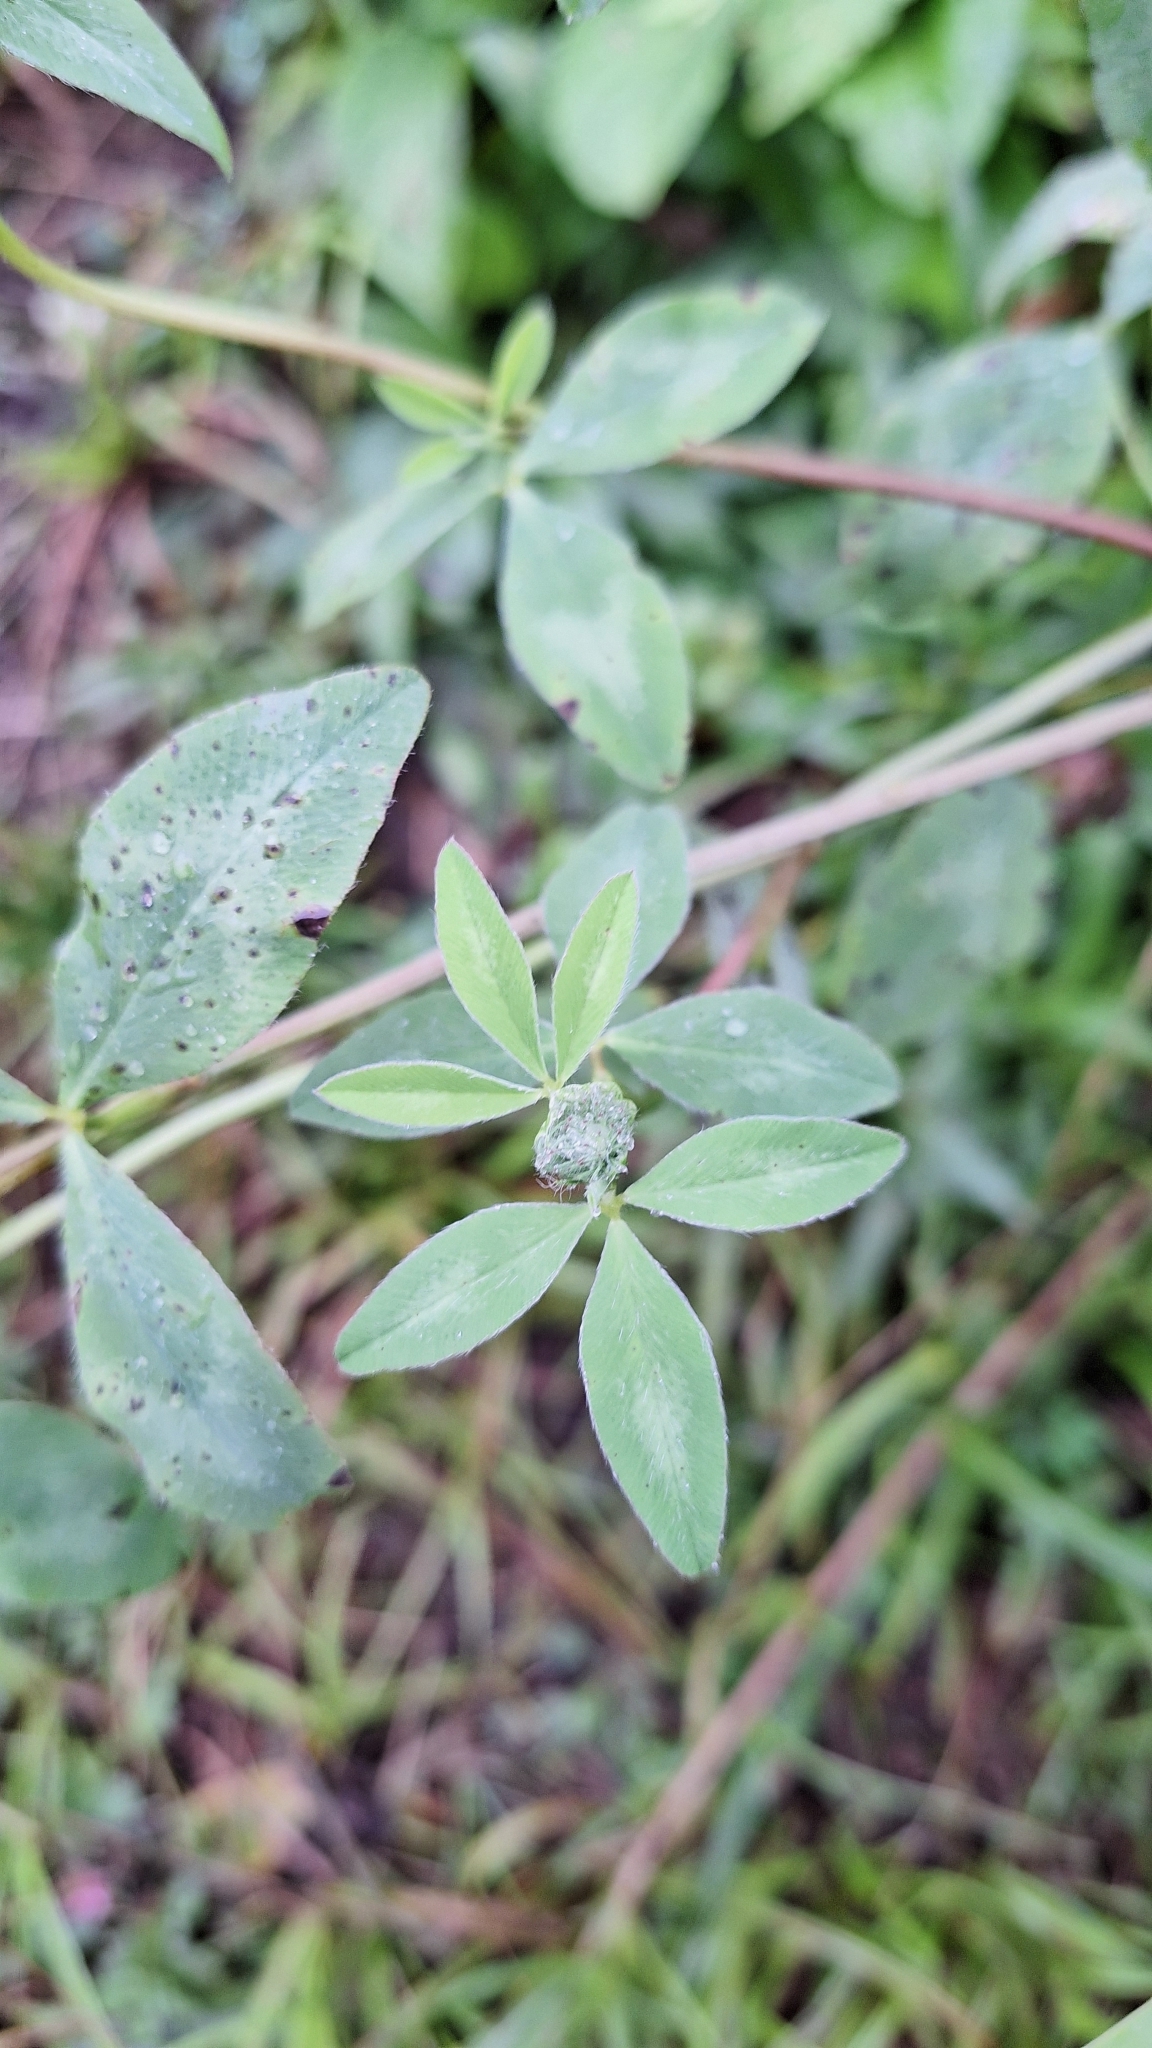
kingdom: Plantae
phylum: Tracheophyta
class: Magnoliopsida
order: Fabales
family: Fabaceae
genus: Trifolium
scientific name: Trifolium pratense
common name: Red clover
